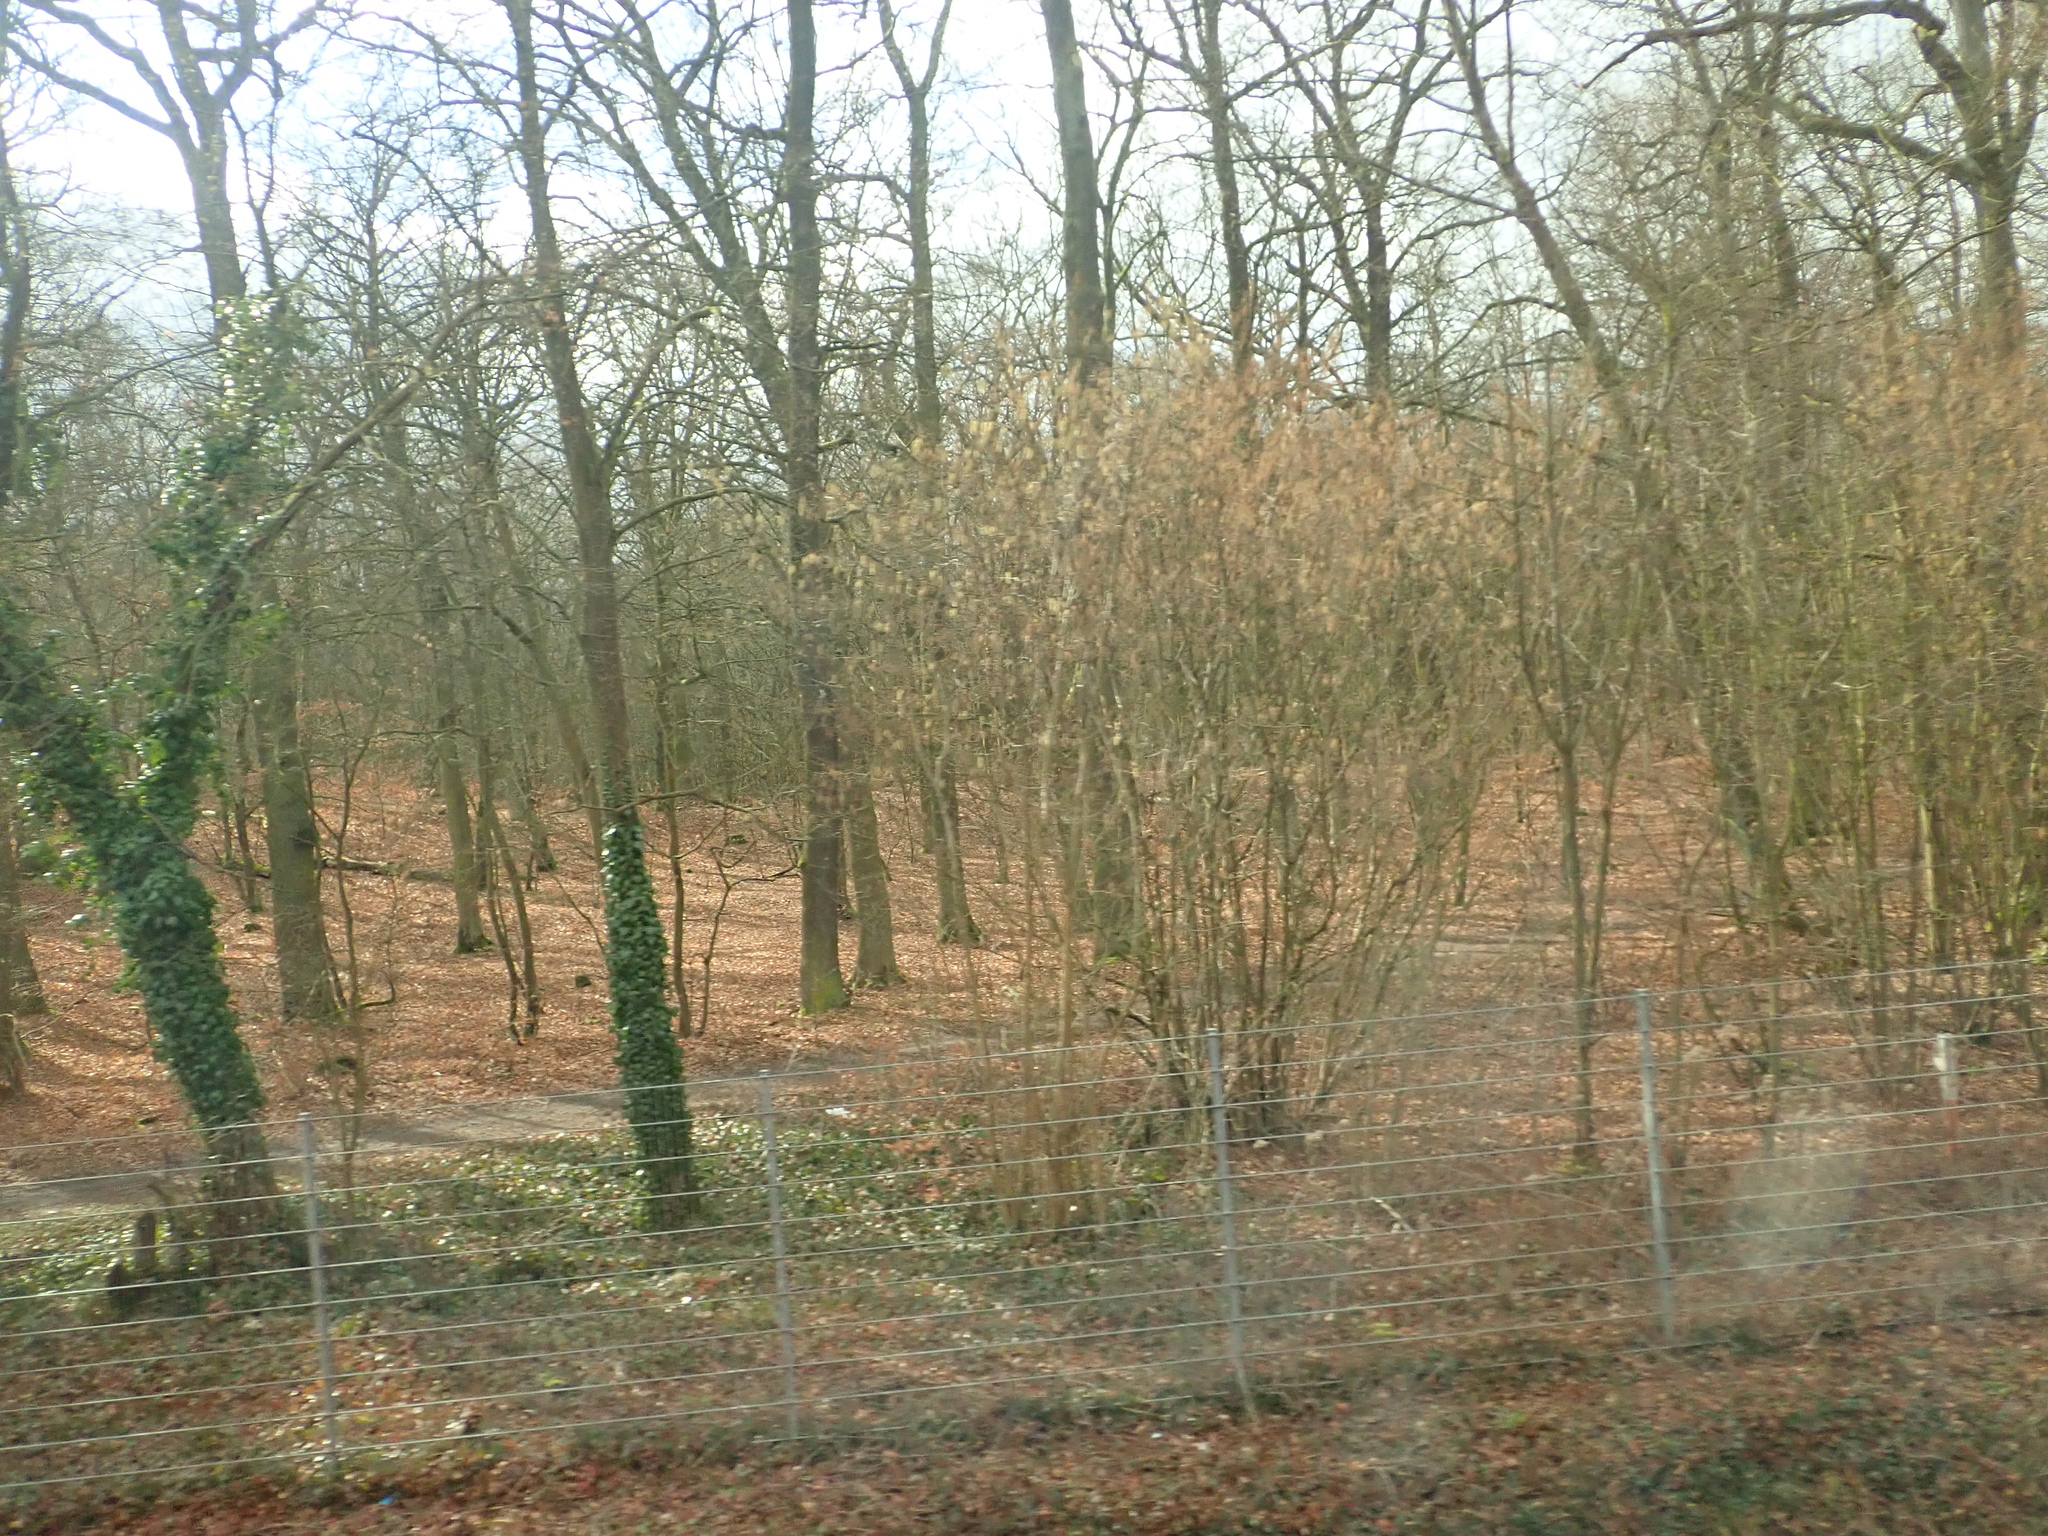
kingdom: Plantae
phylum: Tracheophyta
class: Magnoliopsida
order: Apiales
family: Araliaceae
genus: Hedera
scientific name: Hedera helix
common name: Ivy
